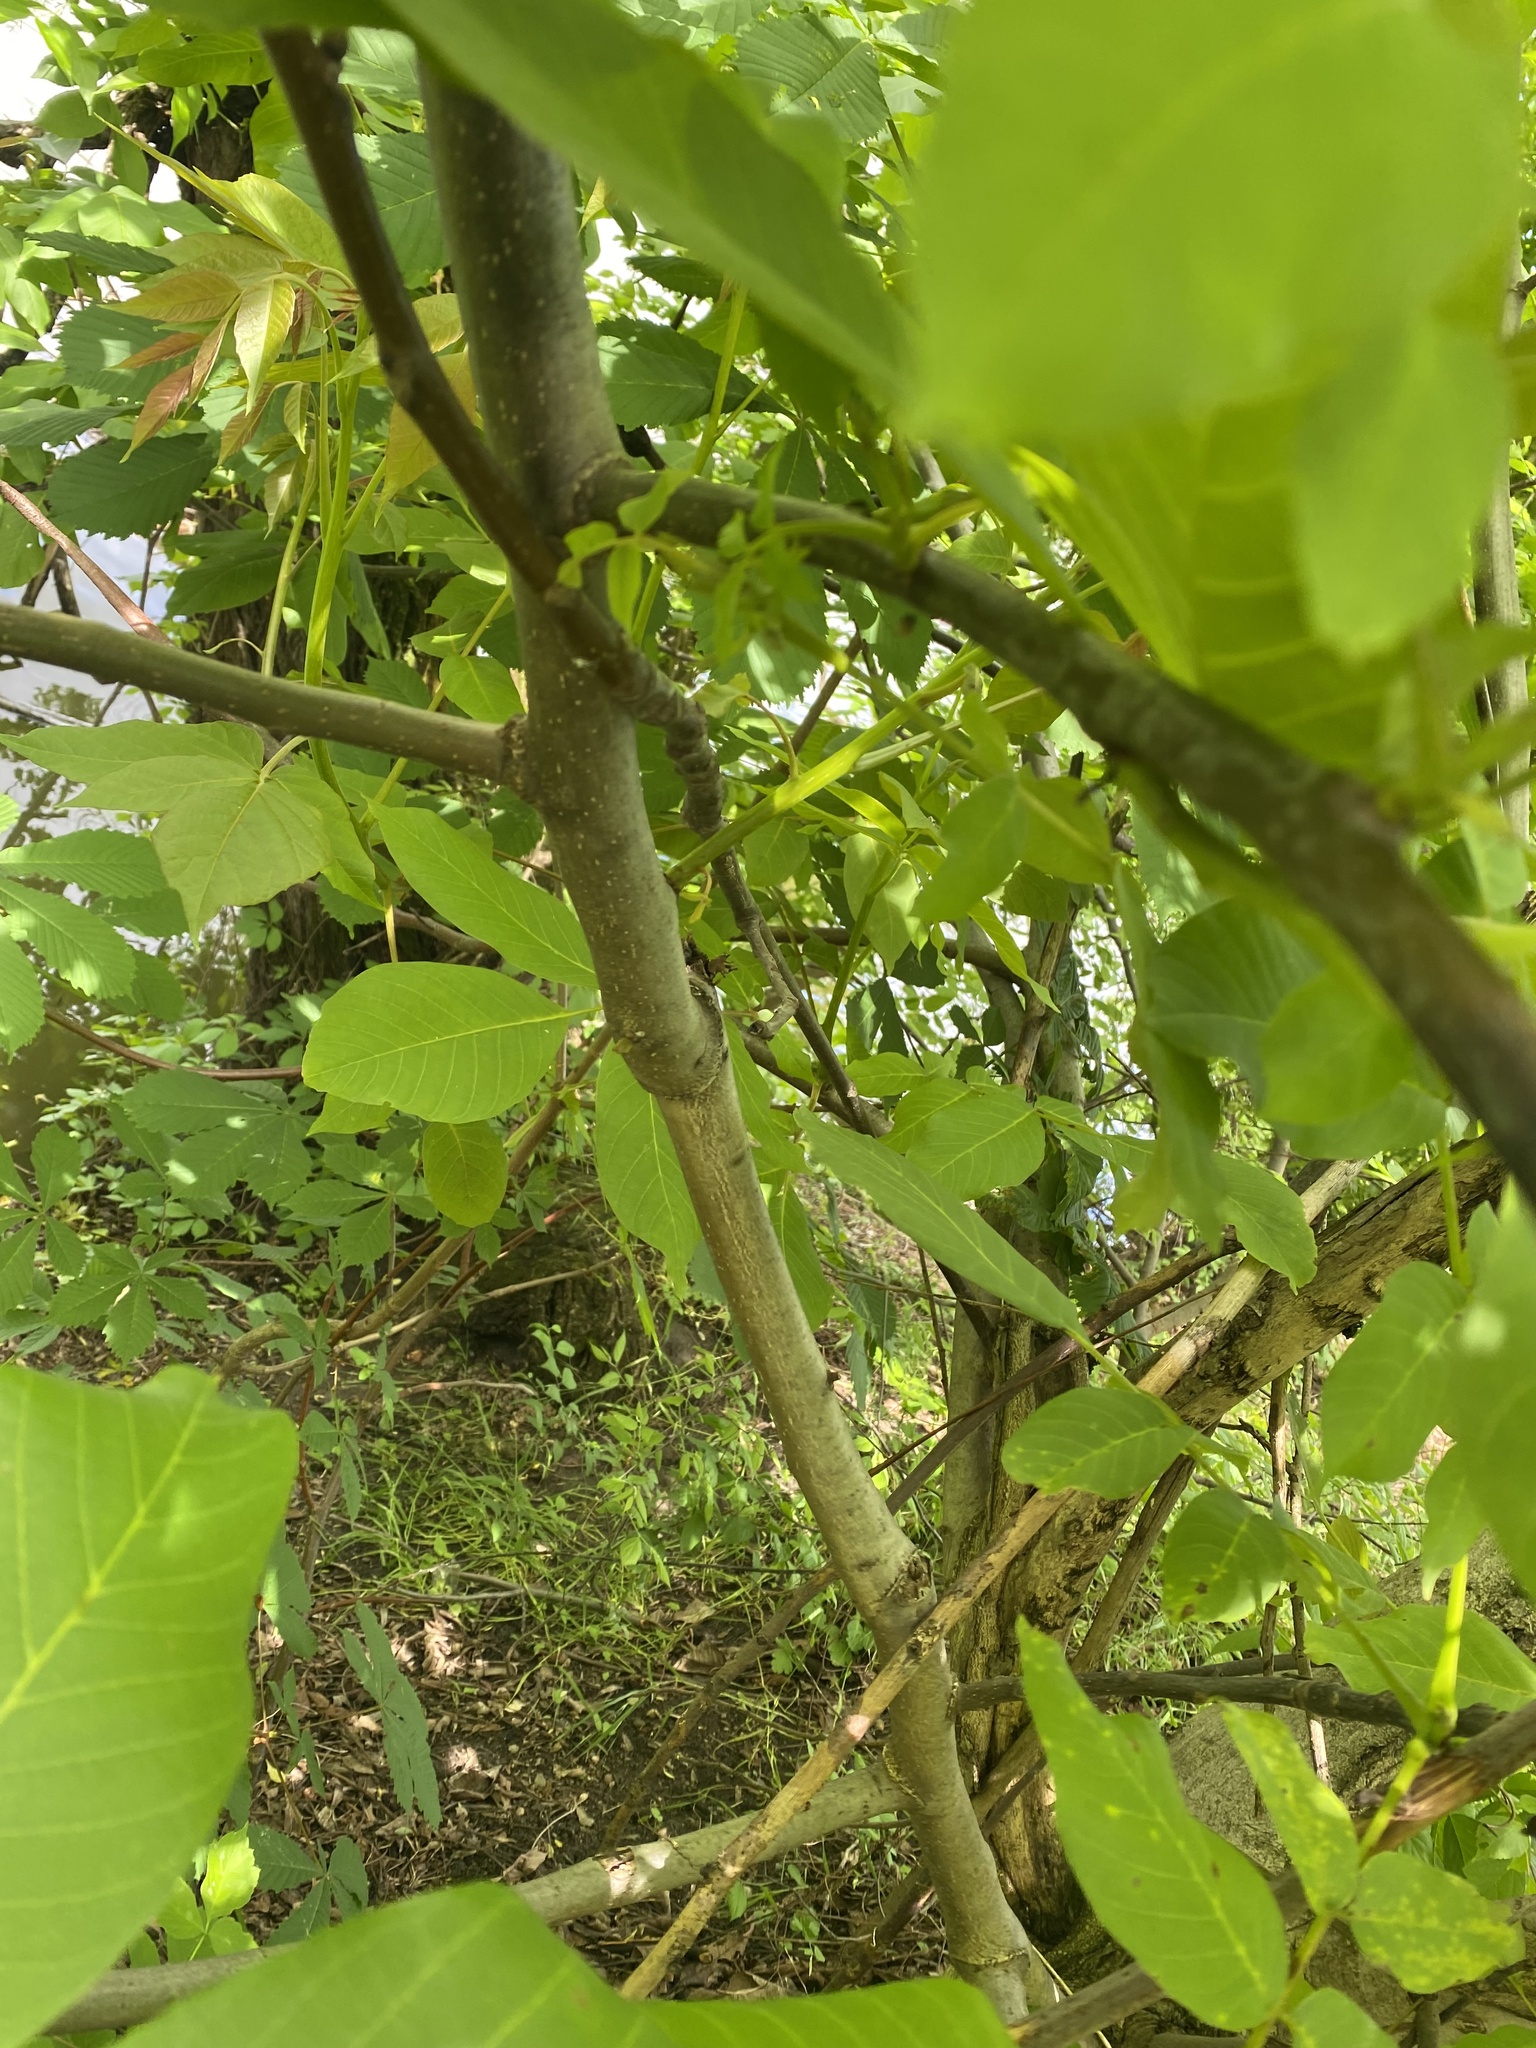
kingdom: Plantae
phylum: Tracheophyta
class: Magnoliopsida
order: Fagales
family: Juglandaceae
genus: Juglans
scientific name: Juglans regia
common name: Walnut
